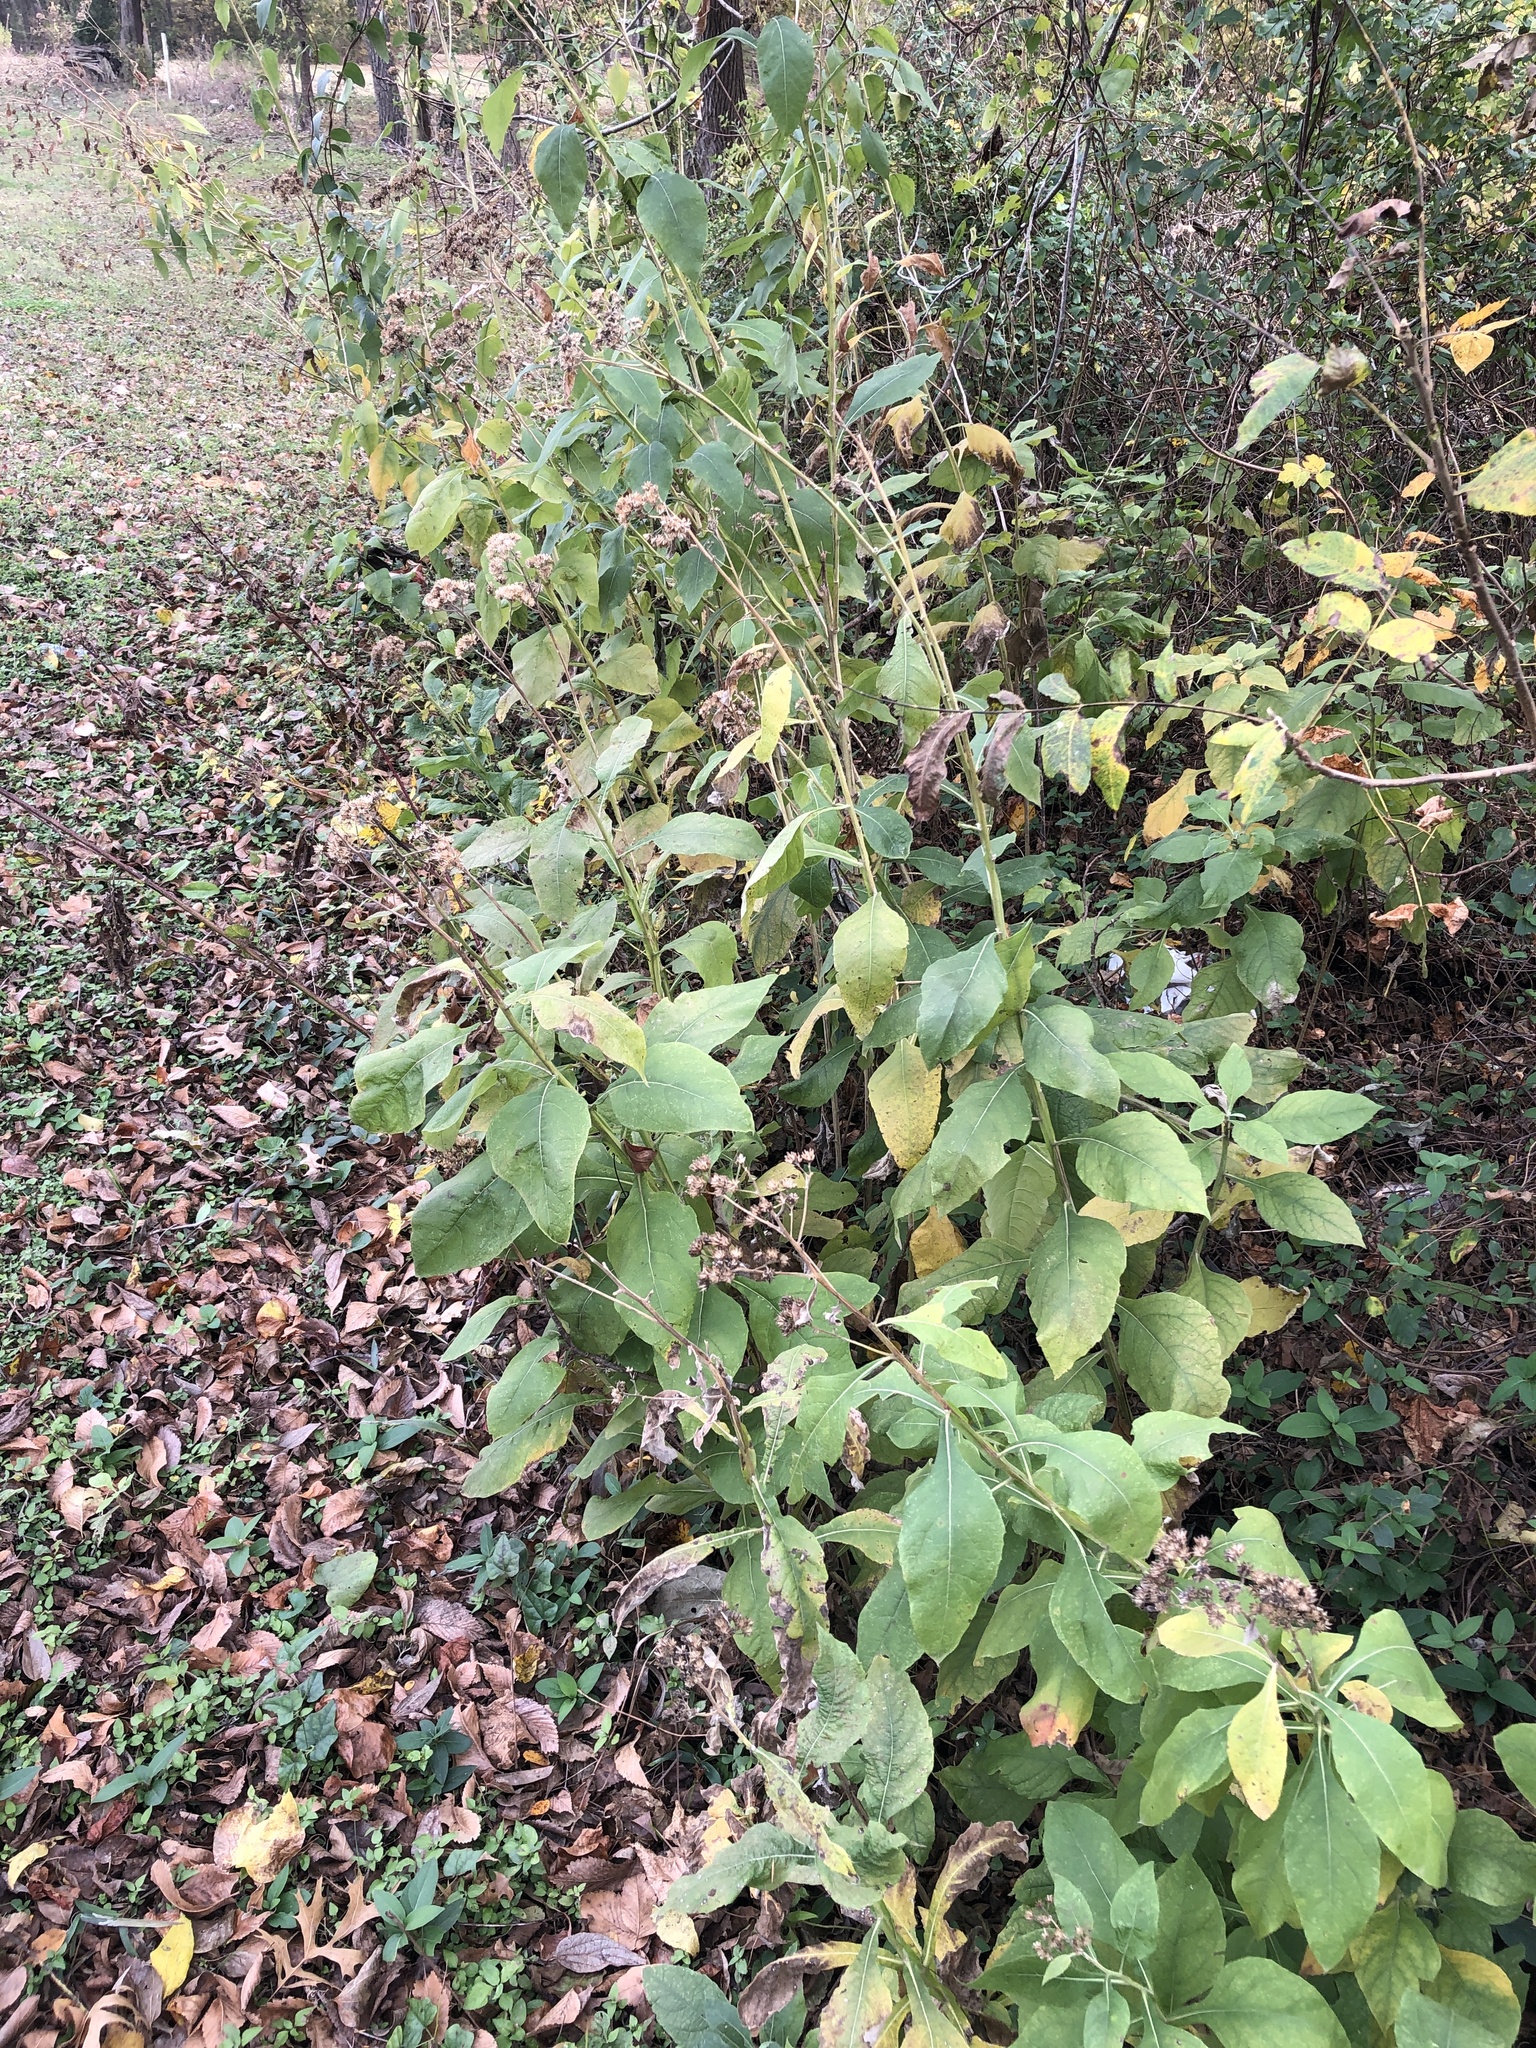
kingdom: Plantae
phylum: Tracheophyta
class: Magnoliopsida
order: Asterales
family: Asteraceae
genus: Verbesina
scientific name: Verbesina virginica
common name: Frostweed
